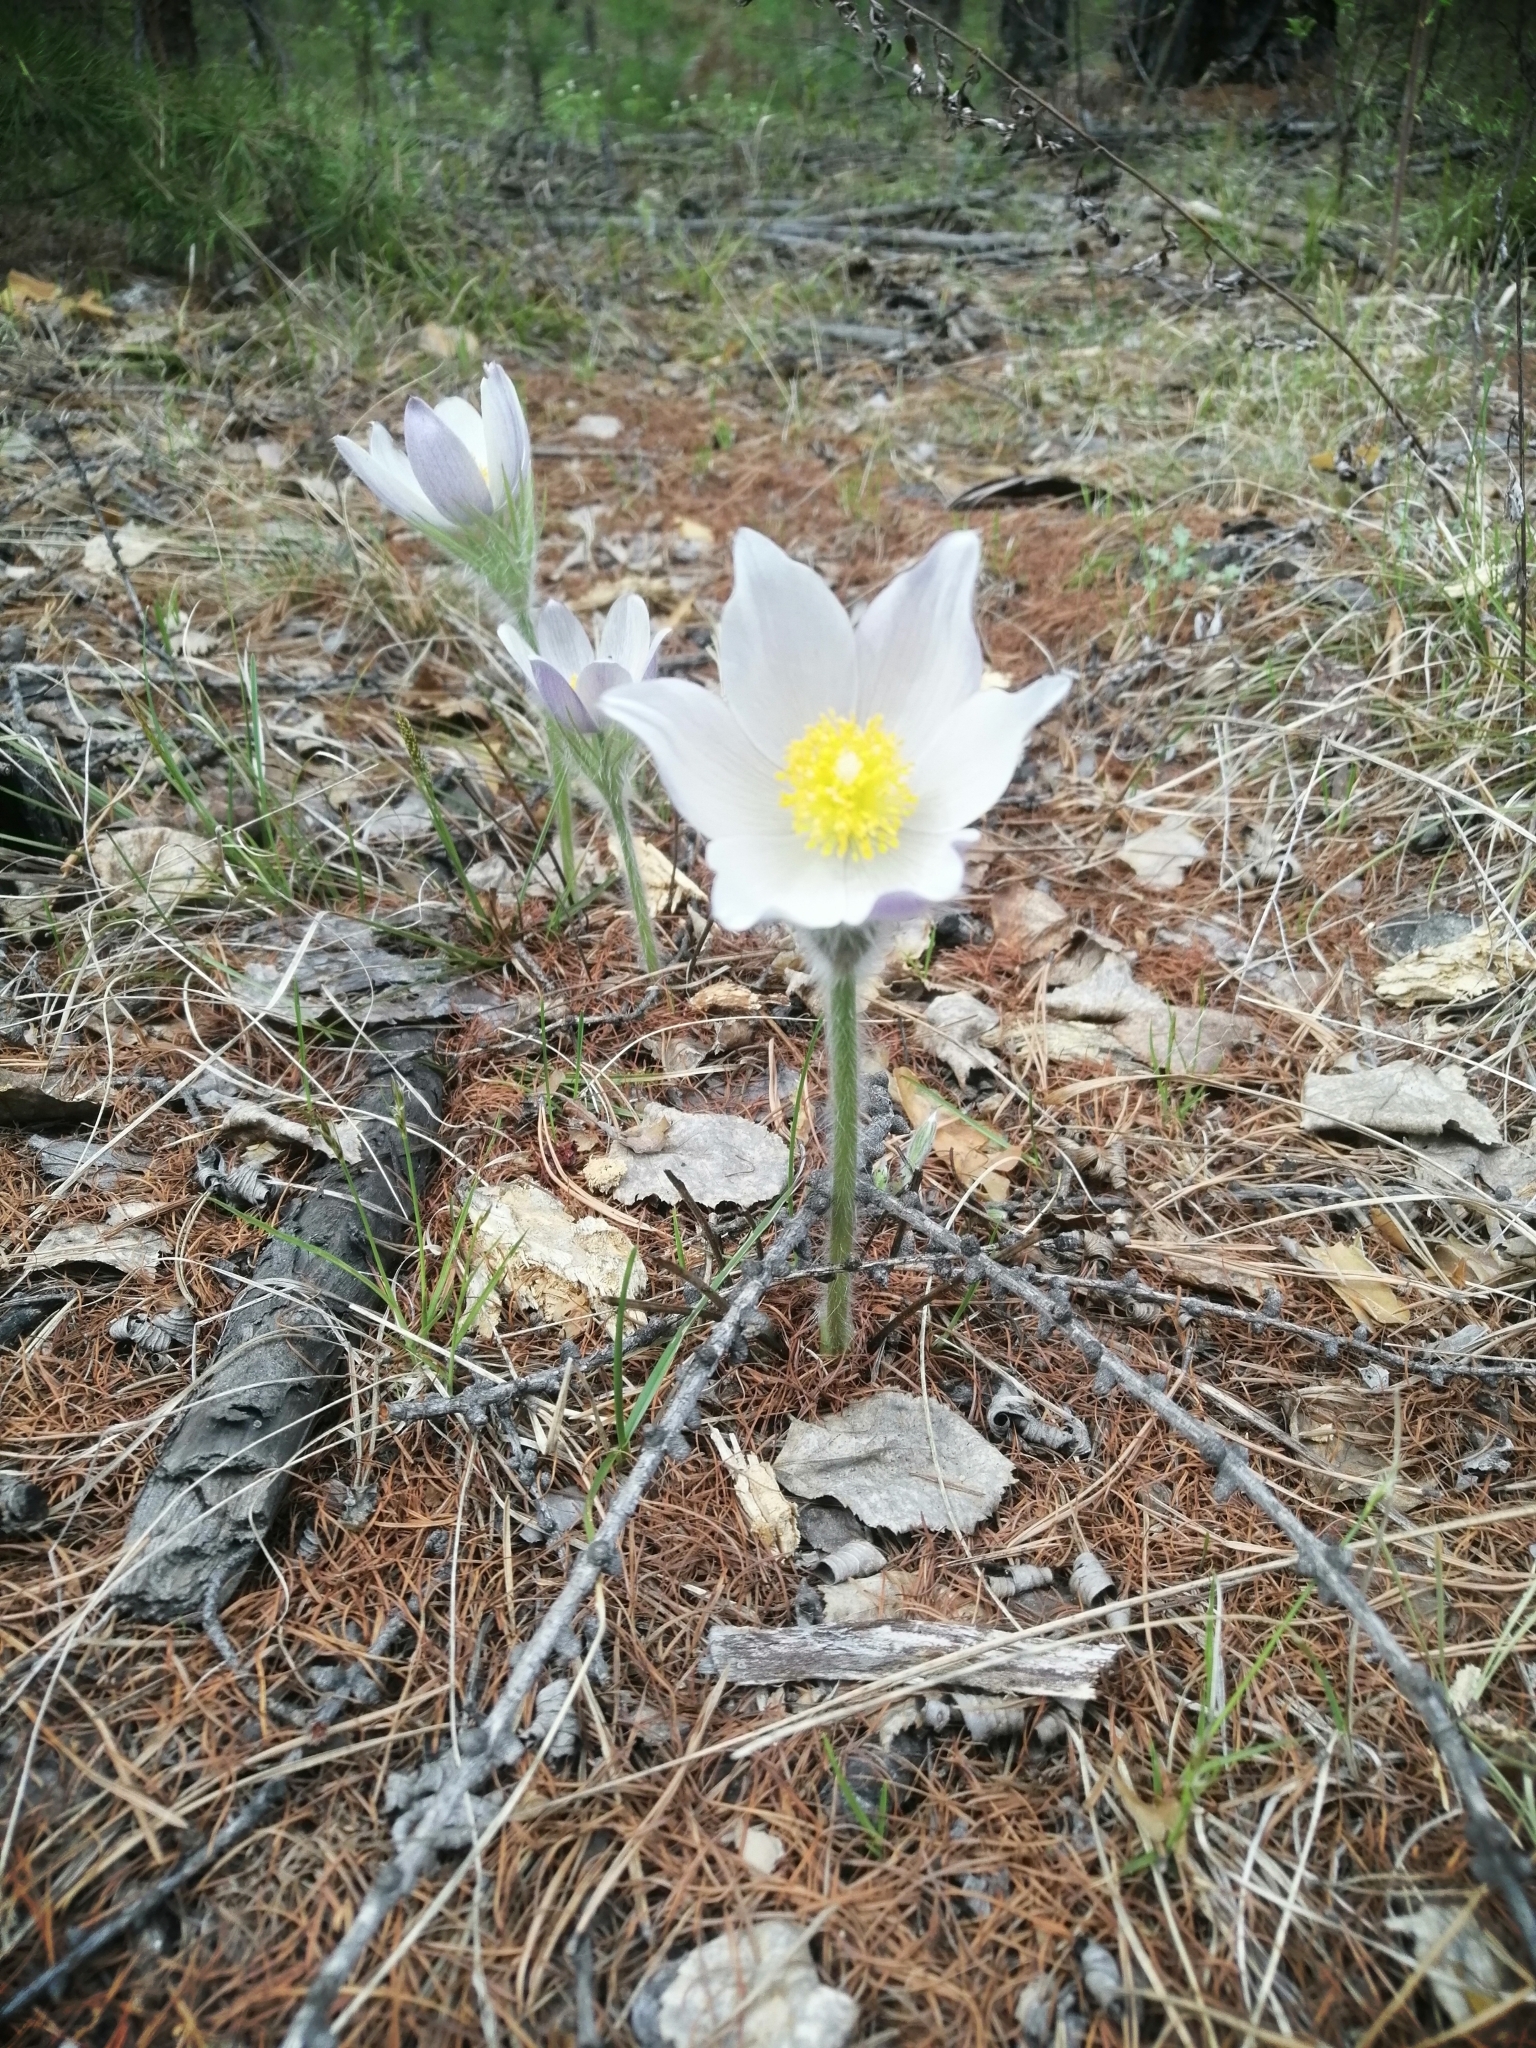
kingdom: Plantae
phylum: Tracheophyta
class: Magnoliopsida
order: Ranunculales
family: Ranunculaceae
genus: Pulsatilla
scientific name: Pulsatilla patens
